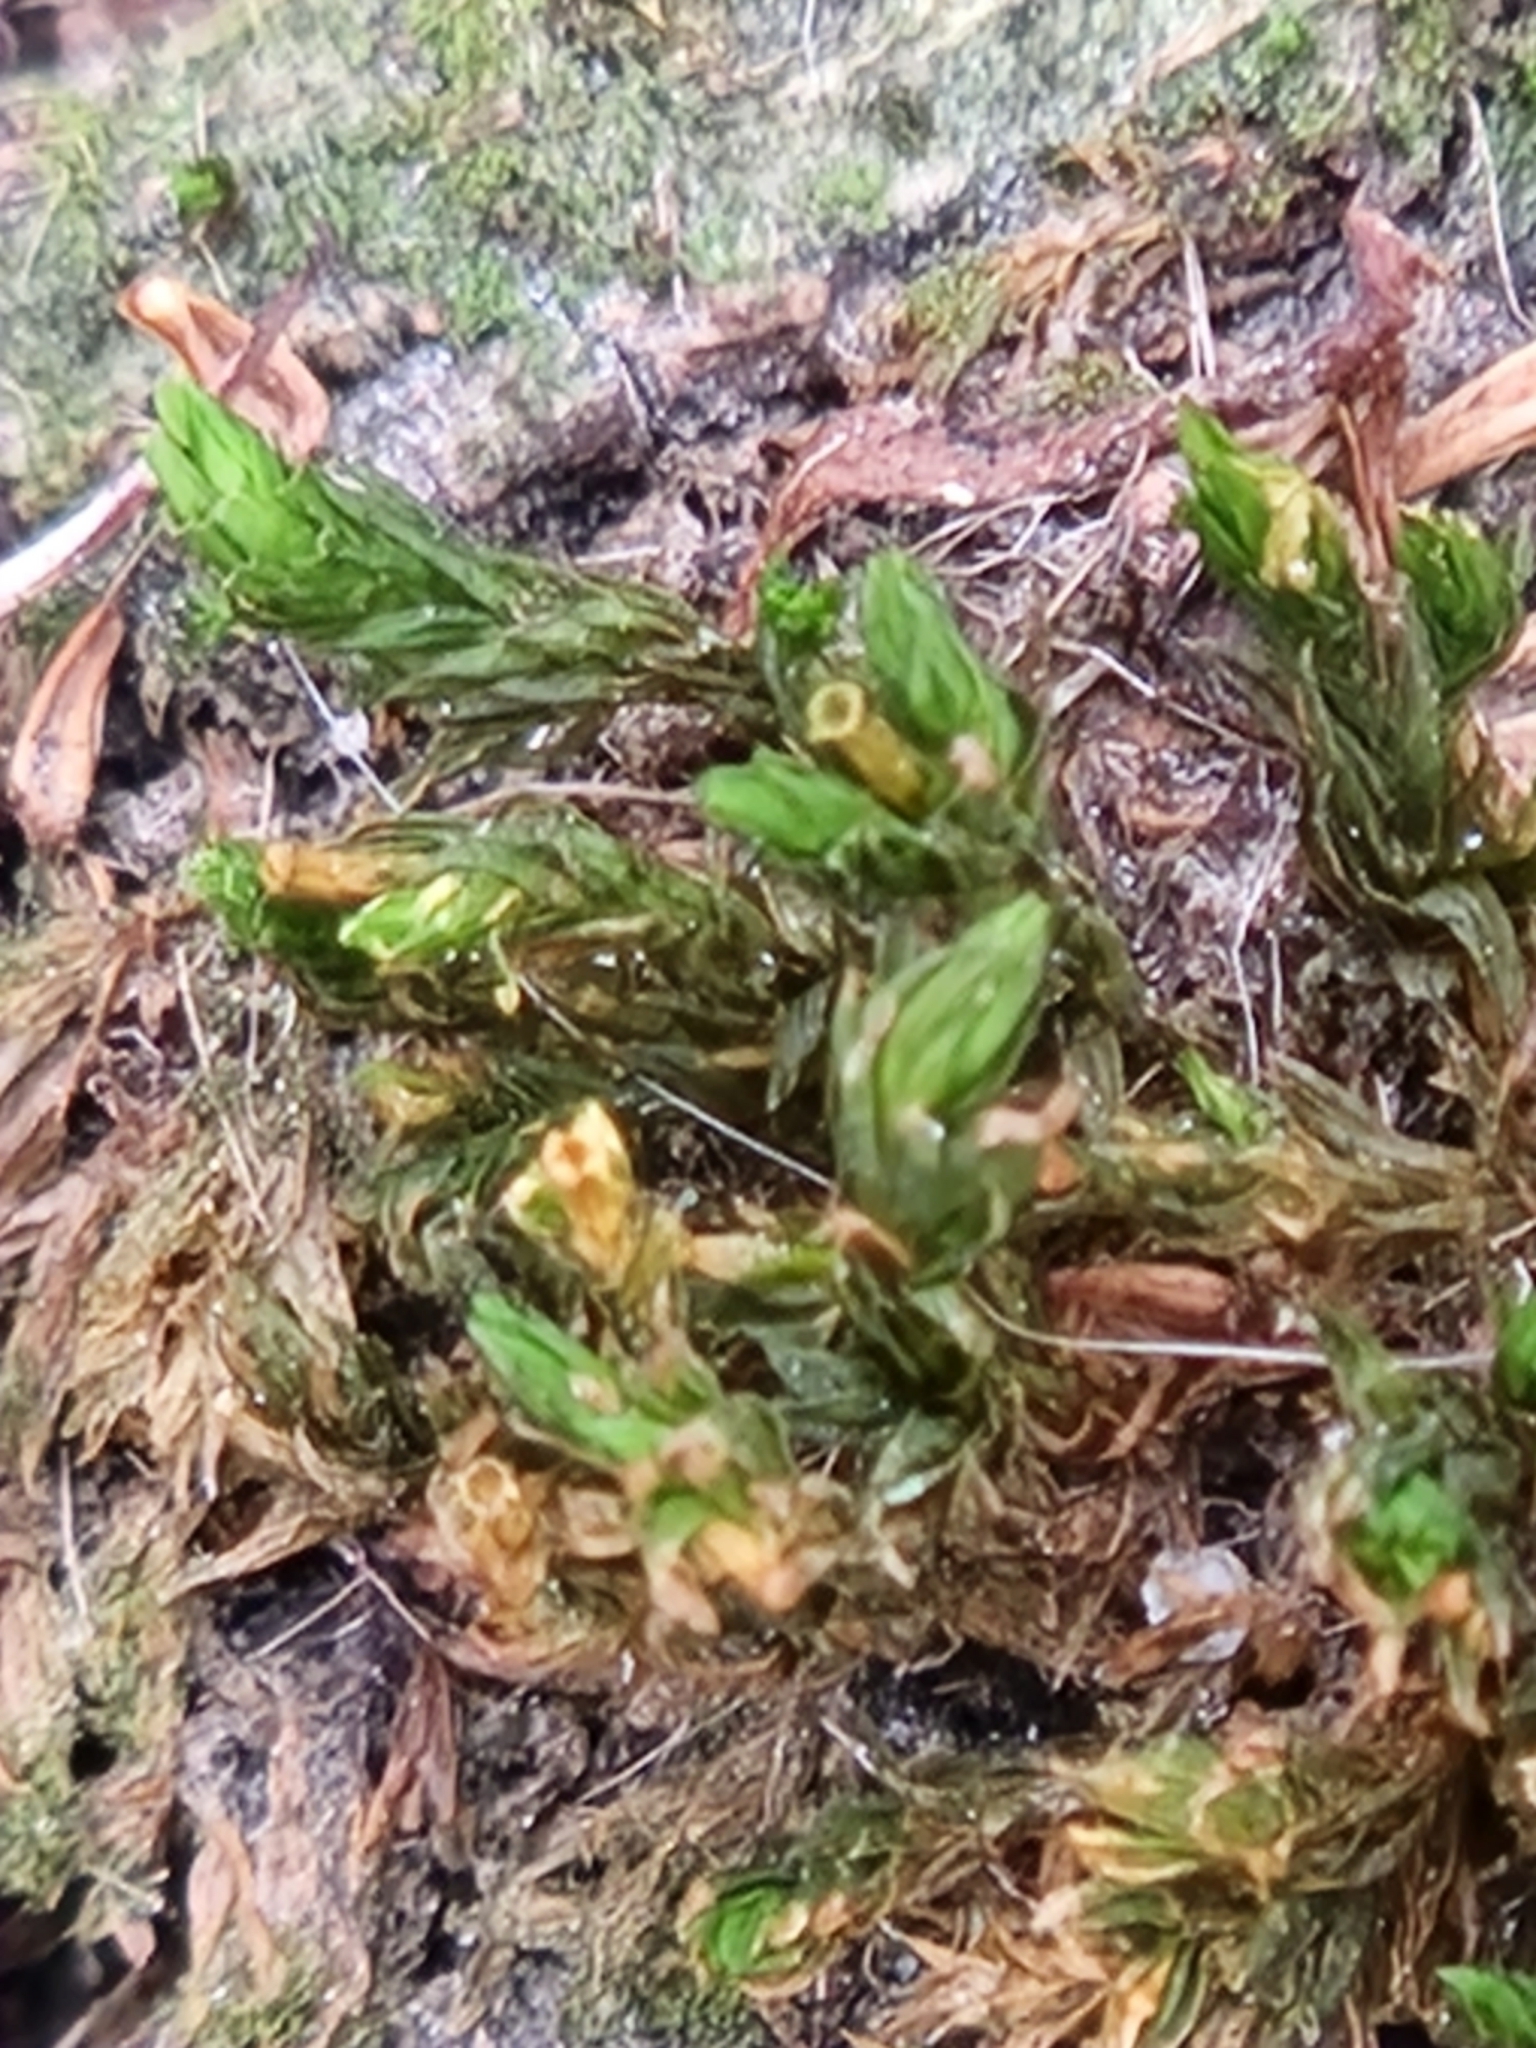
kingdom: Plantae
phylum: Bryophyta
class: Bryopsida
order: Orthotrichales
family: Orthotrichaceae
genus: Lewinskya
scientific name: Lewinskya affinis
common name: Wood bristle-moss
